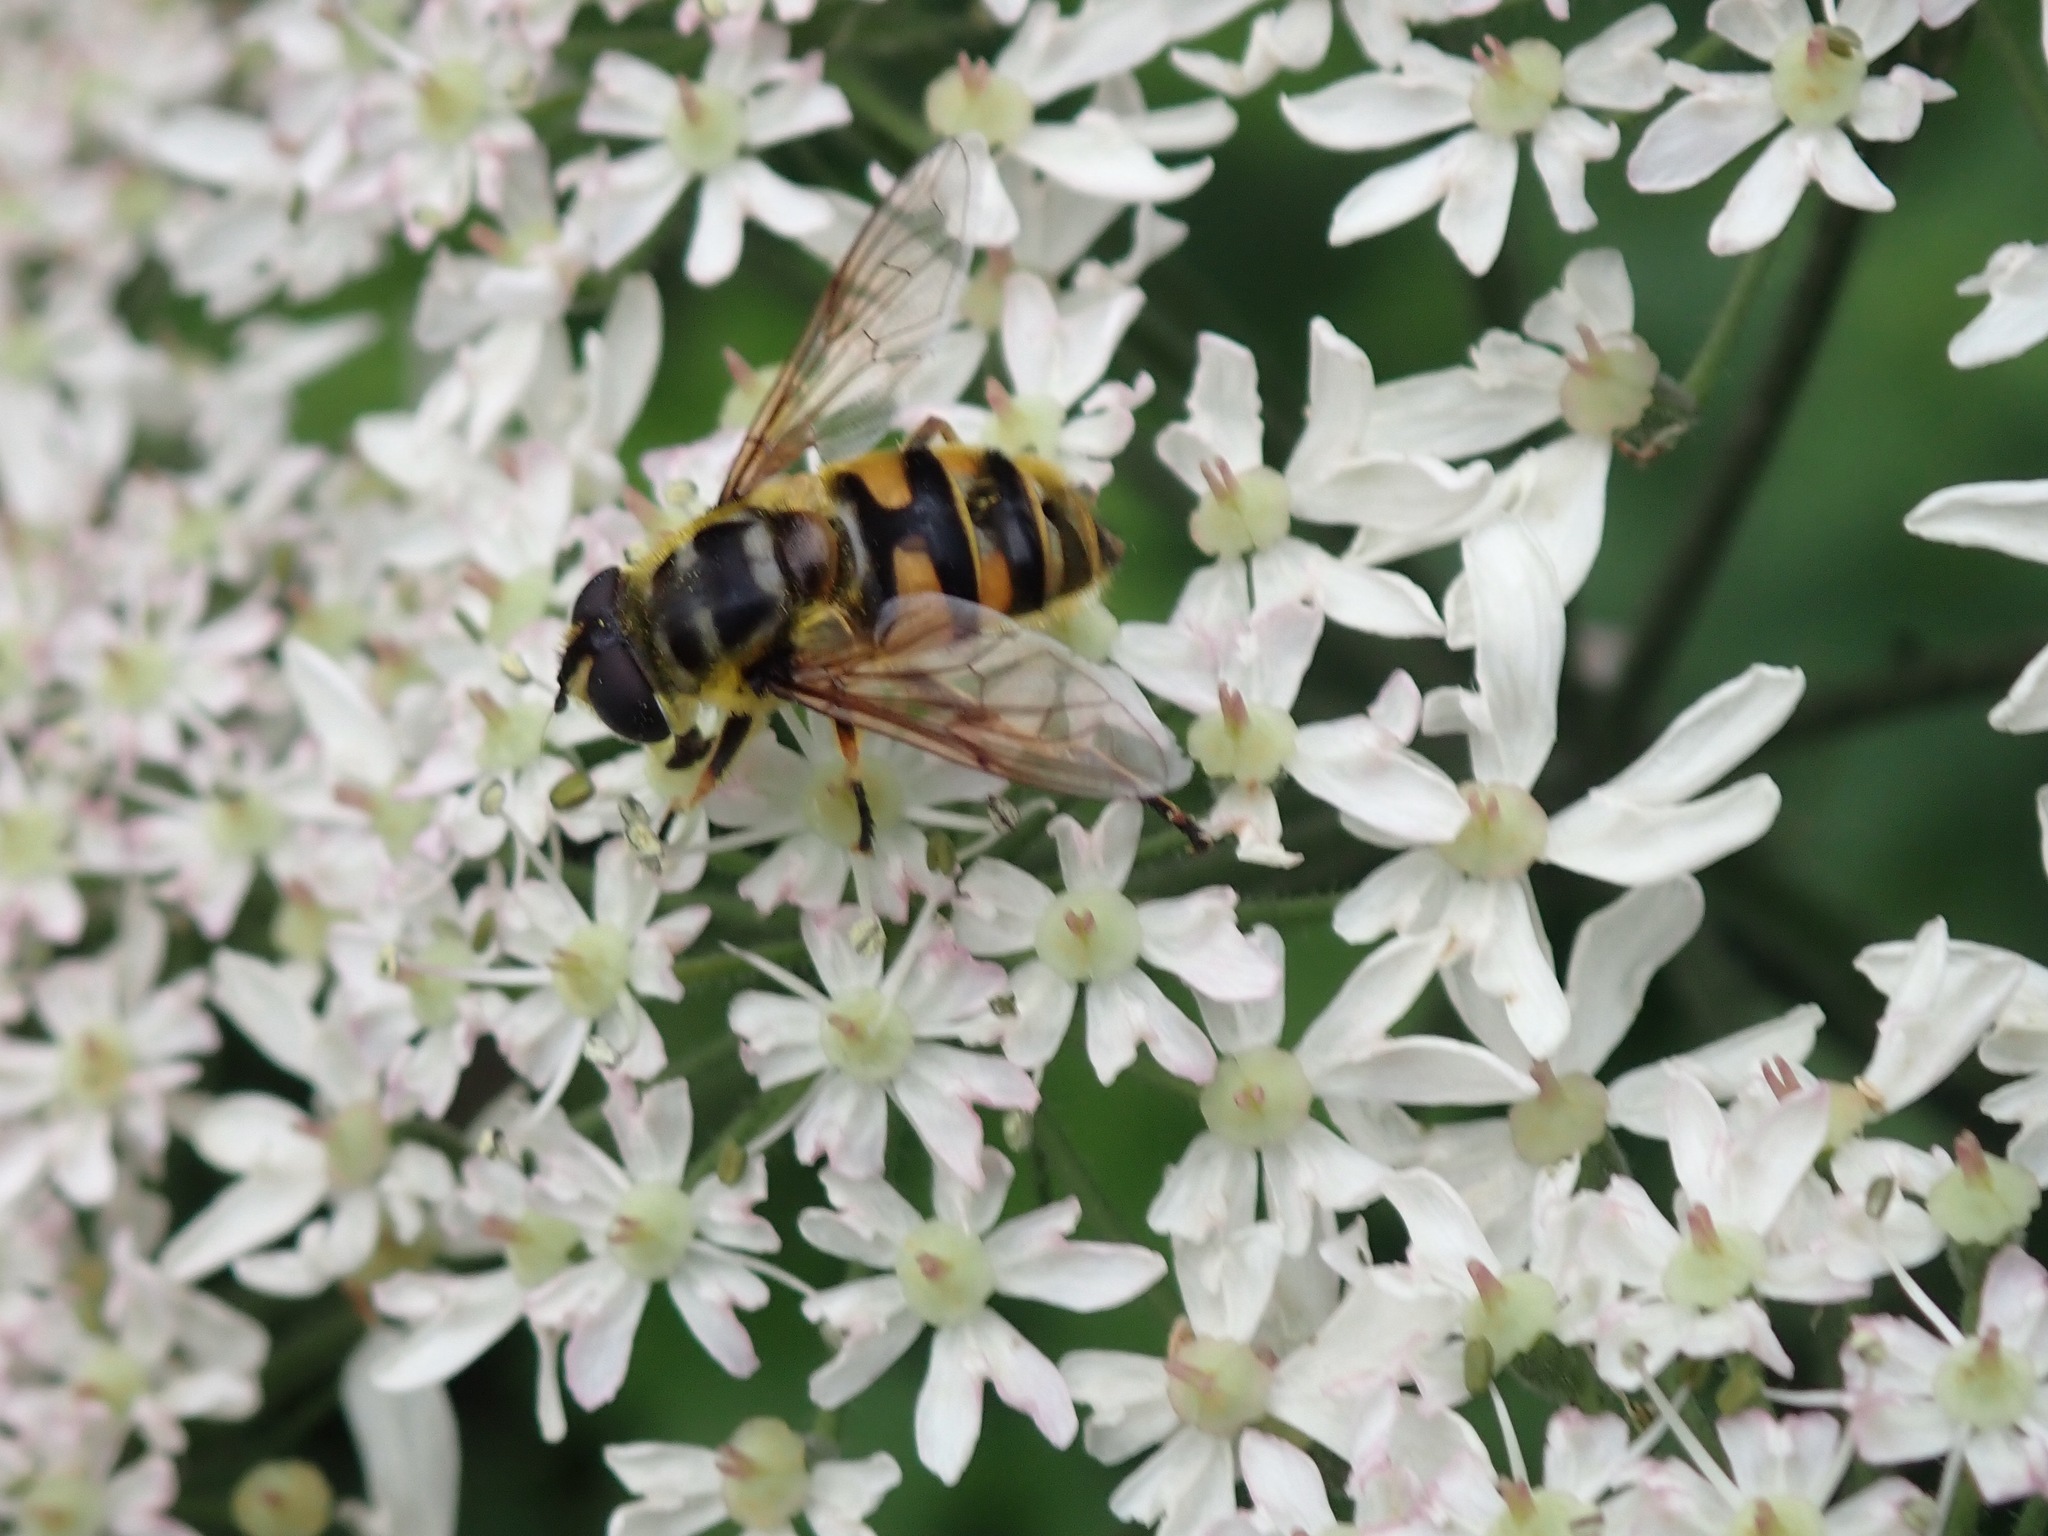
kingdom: Animalia
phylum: Arthropoda
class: Insecta
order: Diptera
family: Syrphidae
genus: Myathropa
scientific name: Myathropa florea
